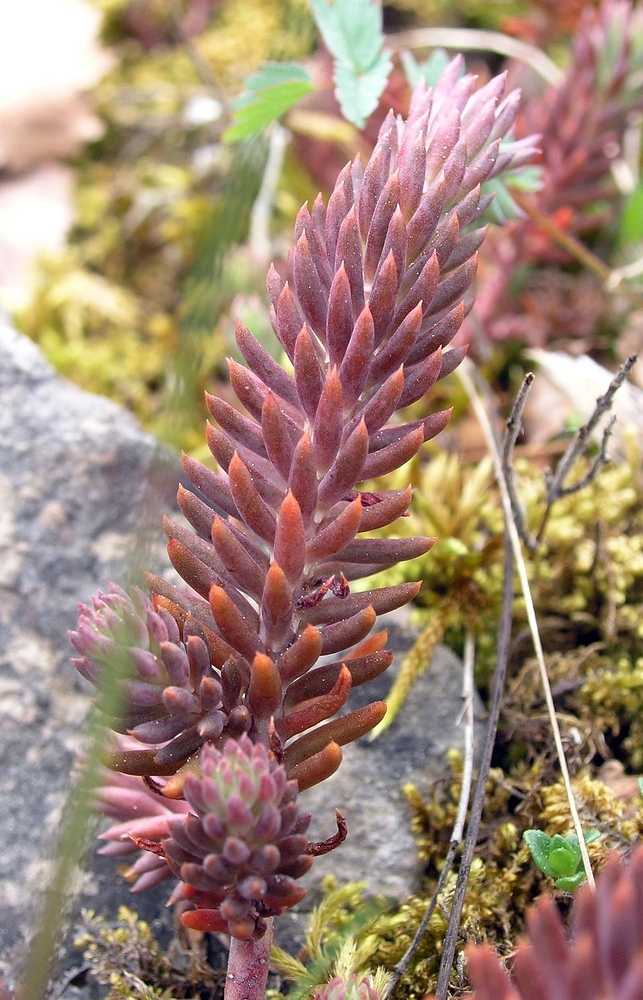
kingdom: Plantae
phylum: Tracheophyta
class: Magnoliopsida
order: Saxifragales
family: Crassulaceae
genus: Petrosedum
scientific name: Petrosedum rupestre
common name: Jenny's stonecrop
